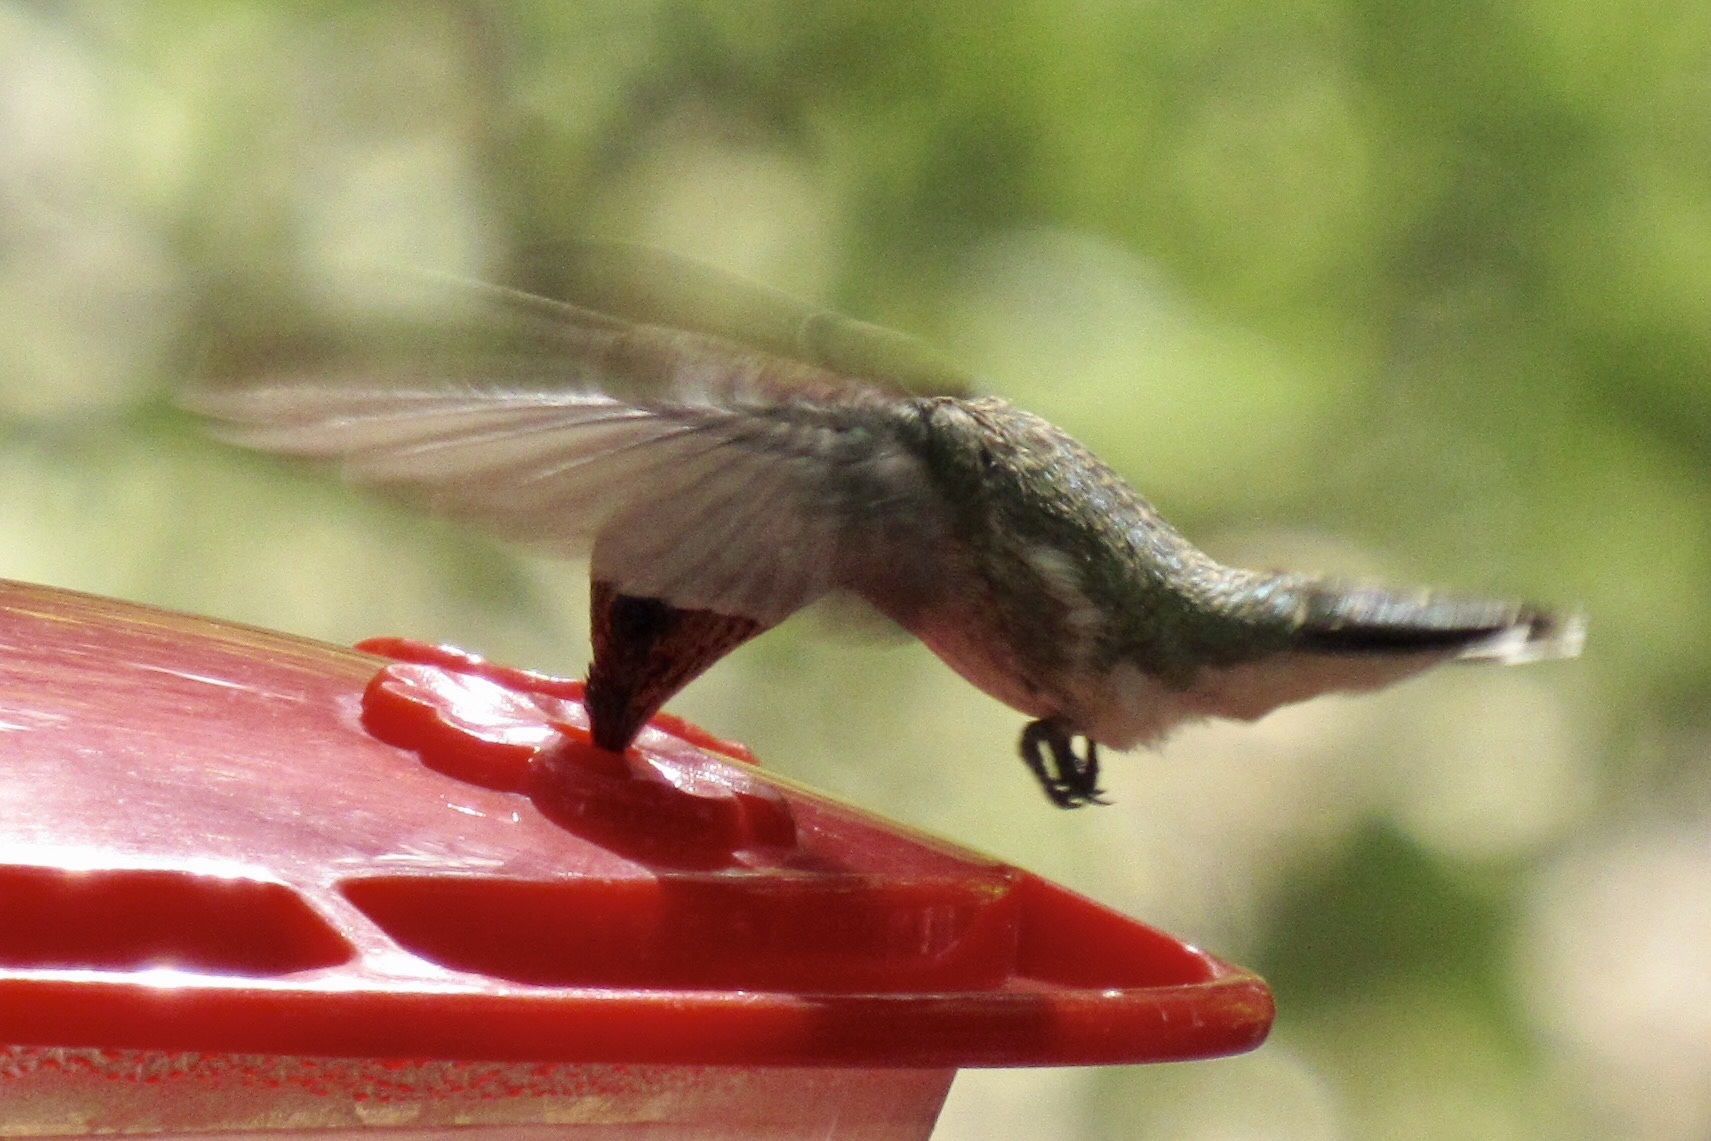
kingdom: Animalia
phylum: Chordata
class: Aves
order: Apodiformes
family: Trochilidae
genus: Archilochus
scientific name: Archilochus alexandri
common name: Black-chinned hummingbird
